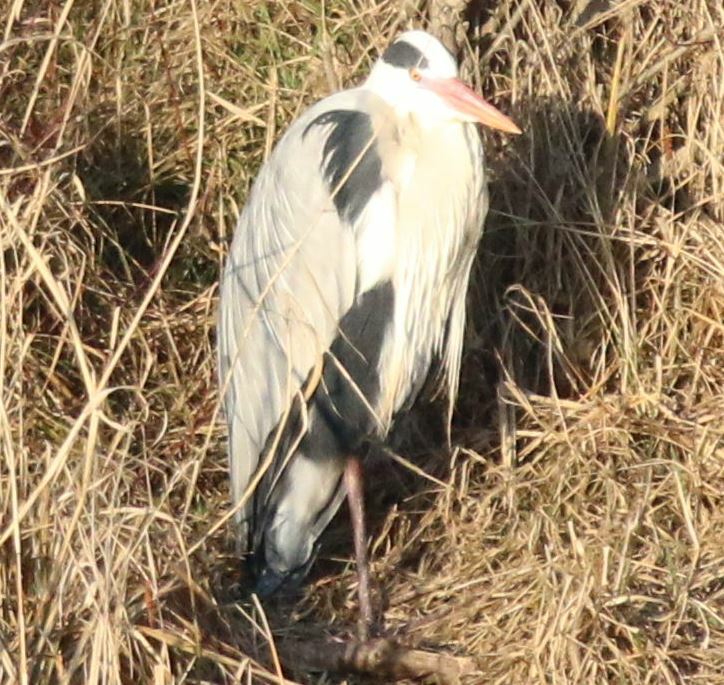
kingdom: Animalia
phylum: Chordata
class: Aves
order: Pelecaniformes
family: Ardeidae
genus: Ardea
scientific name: Ardea cinerea
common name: Grey heron
